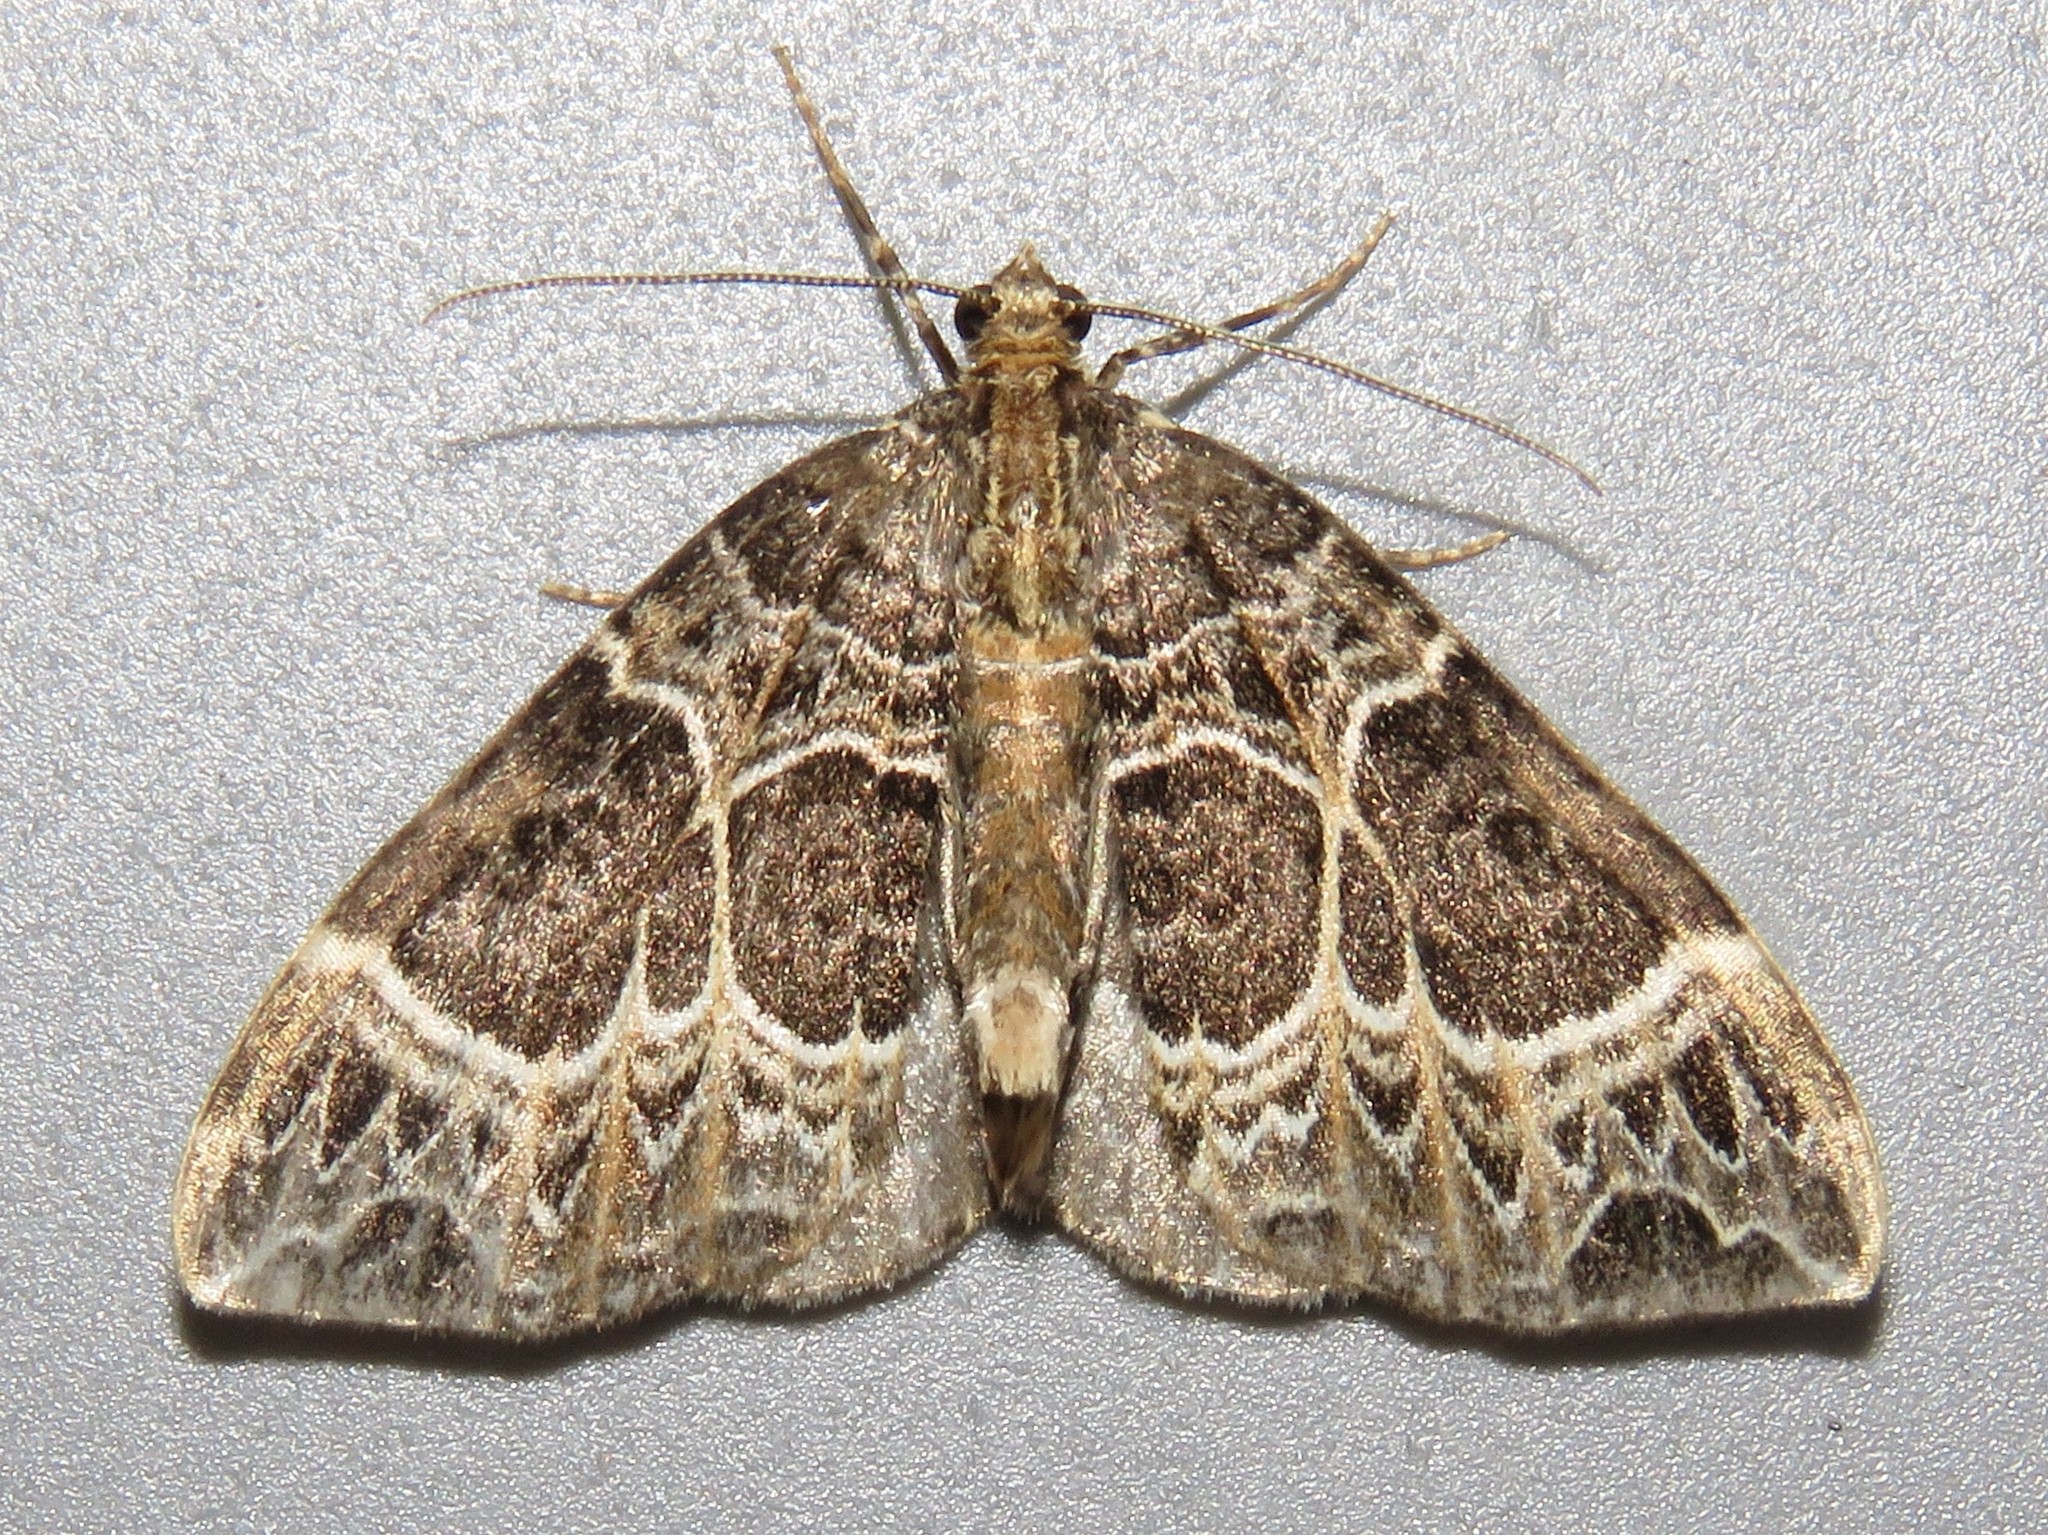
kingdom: Animalia
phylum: Arthropoda
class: Insecta
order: Lepidoptera
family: Geometridae
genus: Ecliptopera
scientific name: Ecliptopera silaceata
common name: Small phoenix
